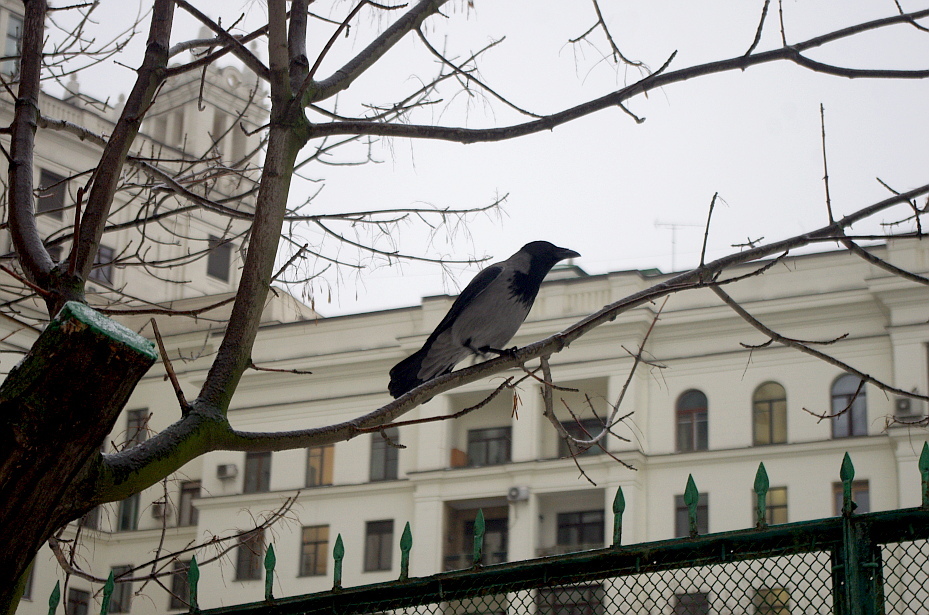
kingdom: Animalia
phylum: Chordata
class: Aves
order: Passeriformes
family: Corvidae
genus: Corvus
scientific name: Corvus cornix
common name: Hooded crow
